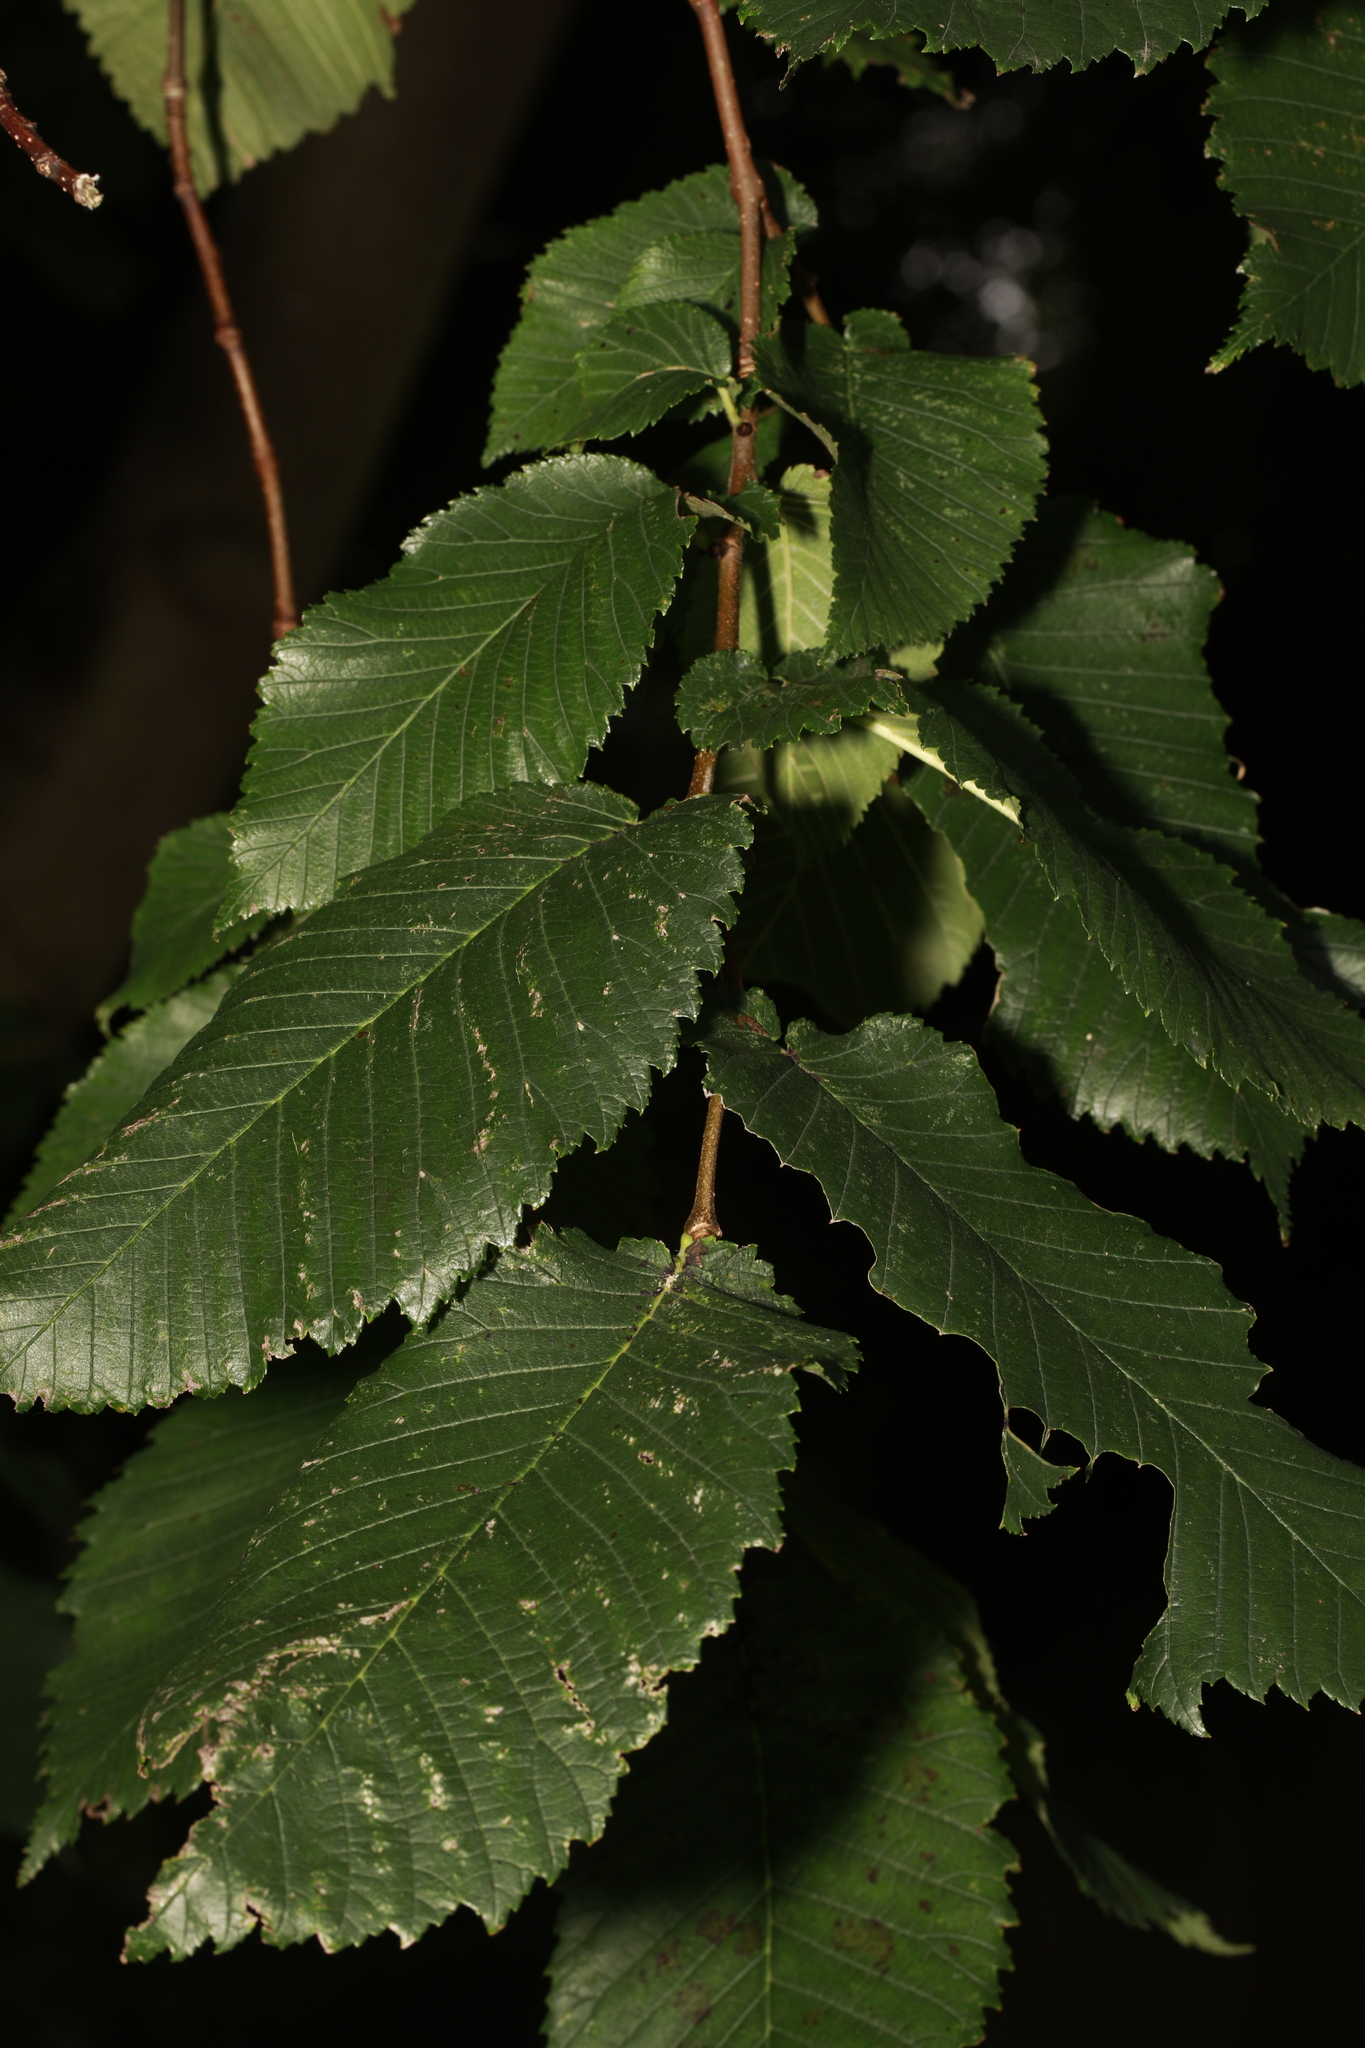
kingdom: Plantae
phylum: Tracheophyta
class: Magnoliopsida
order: Rosales
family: Ulmaceae
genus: Ulmus
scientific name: Ulmus glabra
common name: Wych elm
